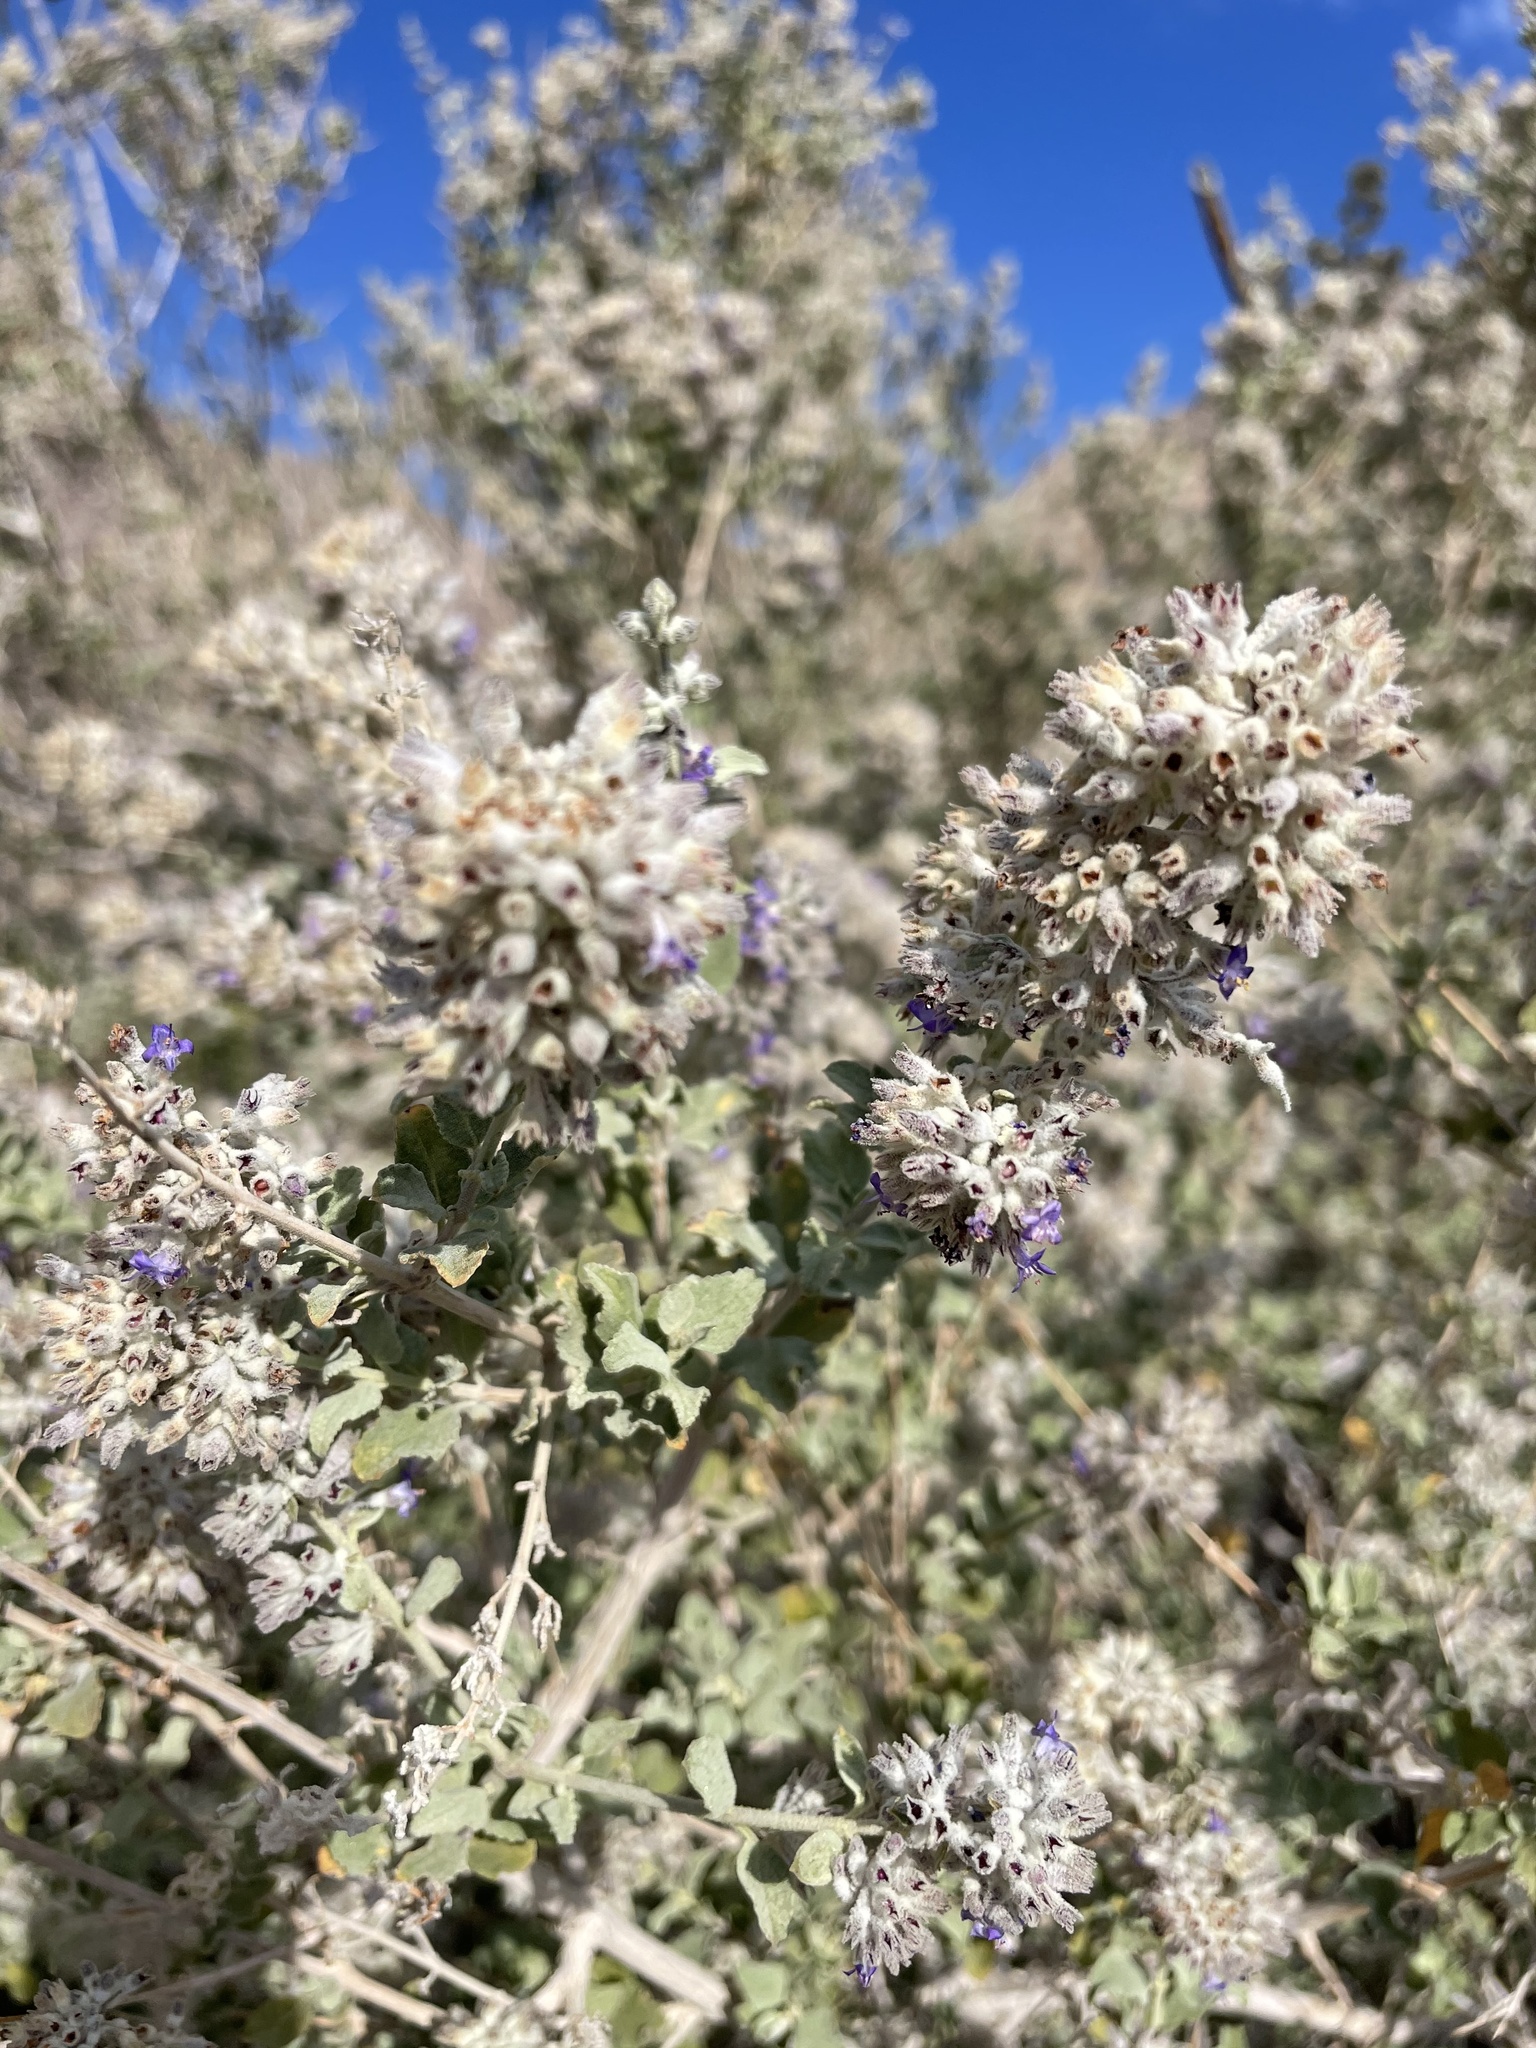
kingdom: Plantae
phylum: Tracheophyta
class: Magnoliopsida
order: Lamiales
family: Lamiaceae
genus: Condea
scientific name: Condea emoryi
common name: Chia
